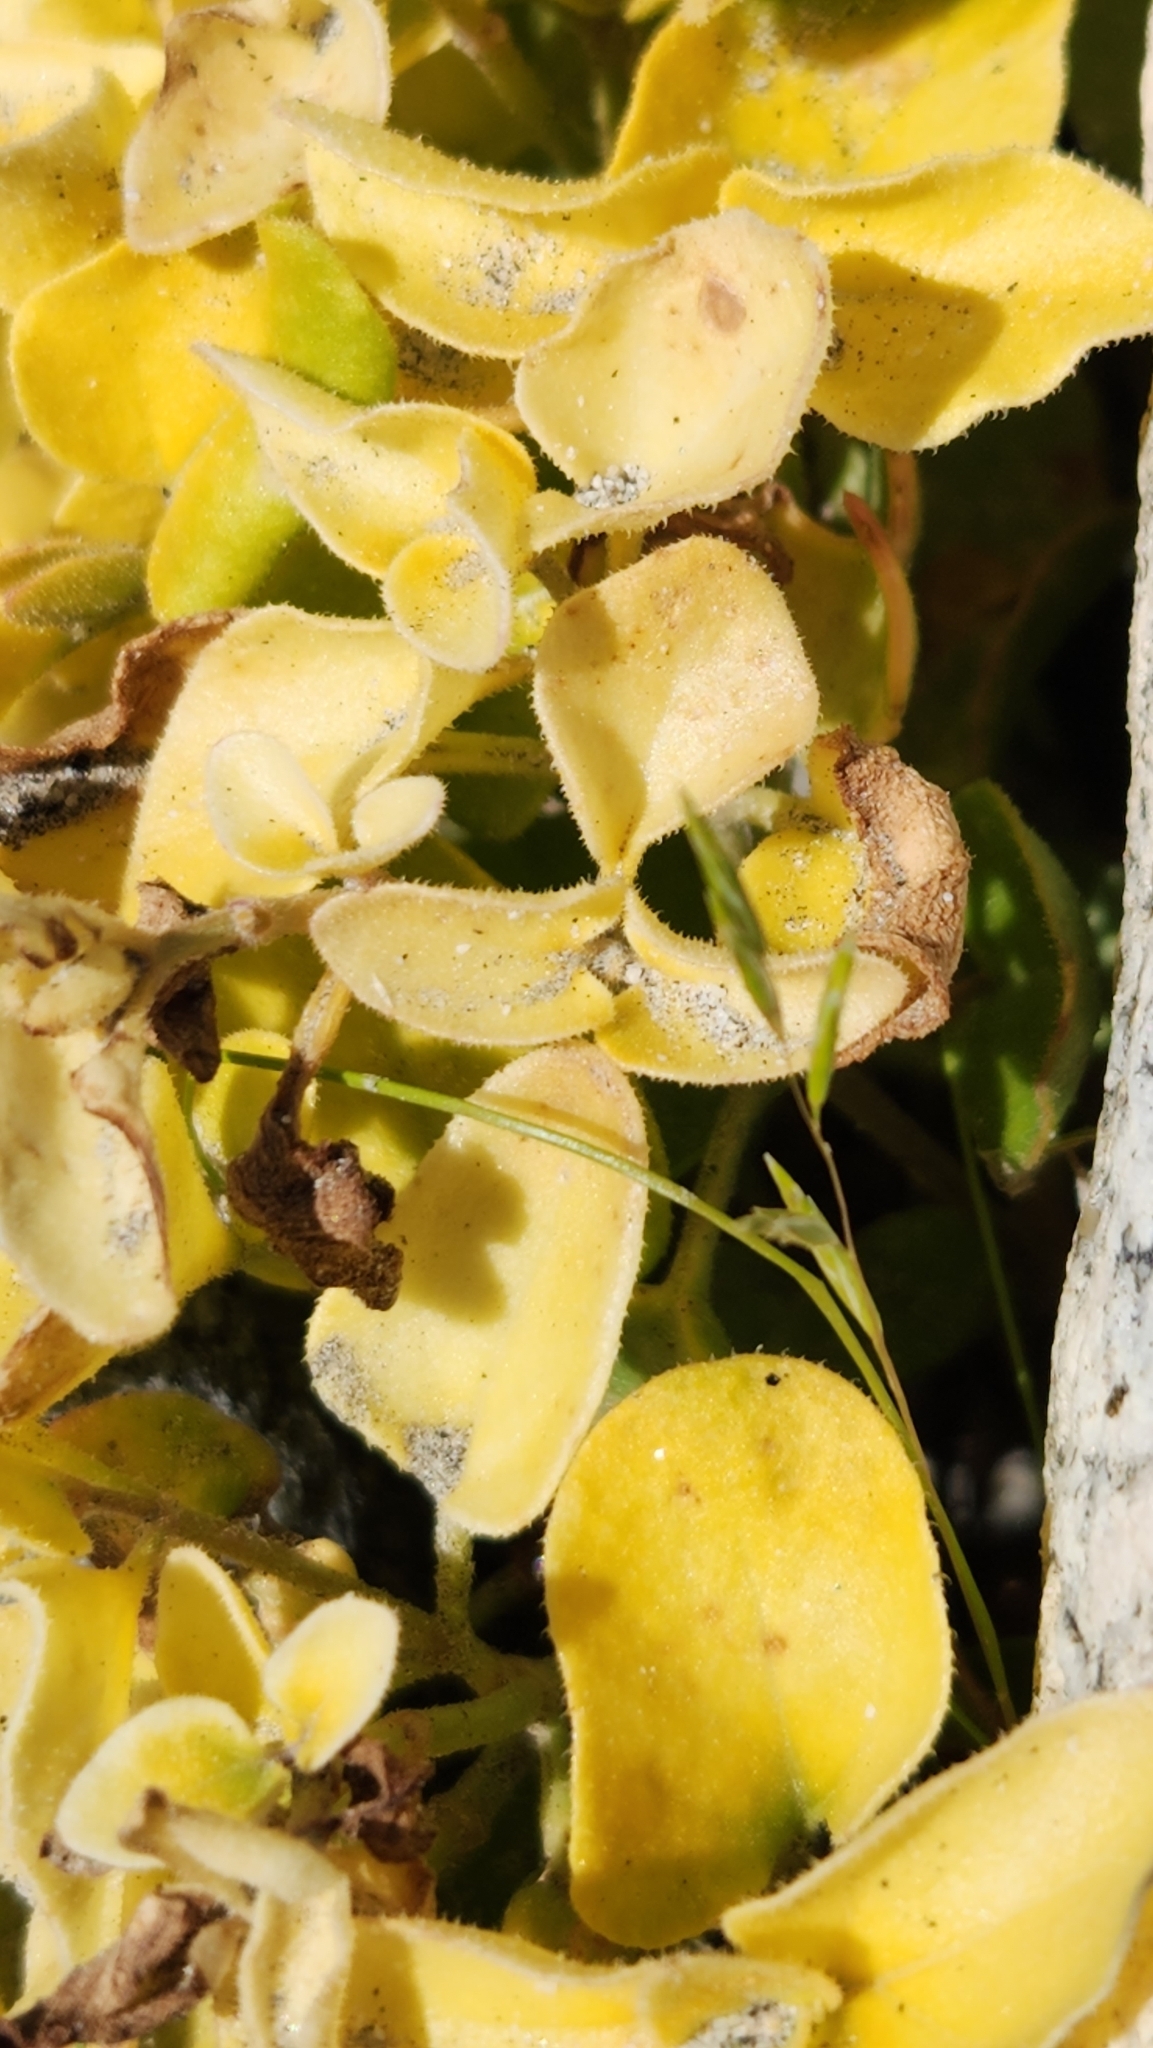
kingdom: Plantae
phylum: Tracheophyta
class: Magnoliopsida
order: Caryophyllales
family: Nyctaginaceae
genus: Mirabilis
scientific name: Mirabilis laevis
